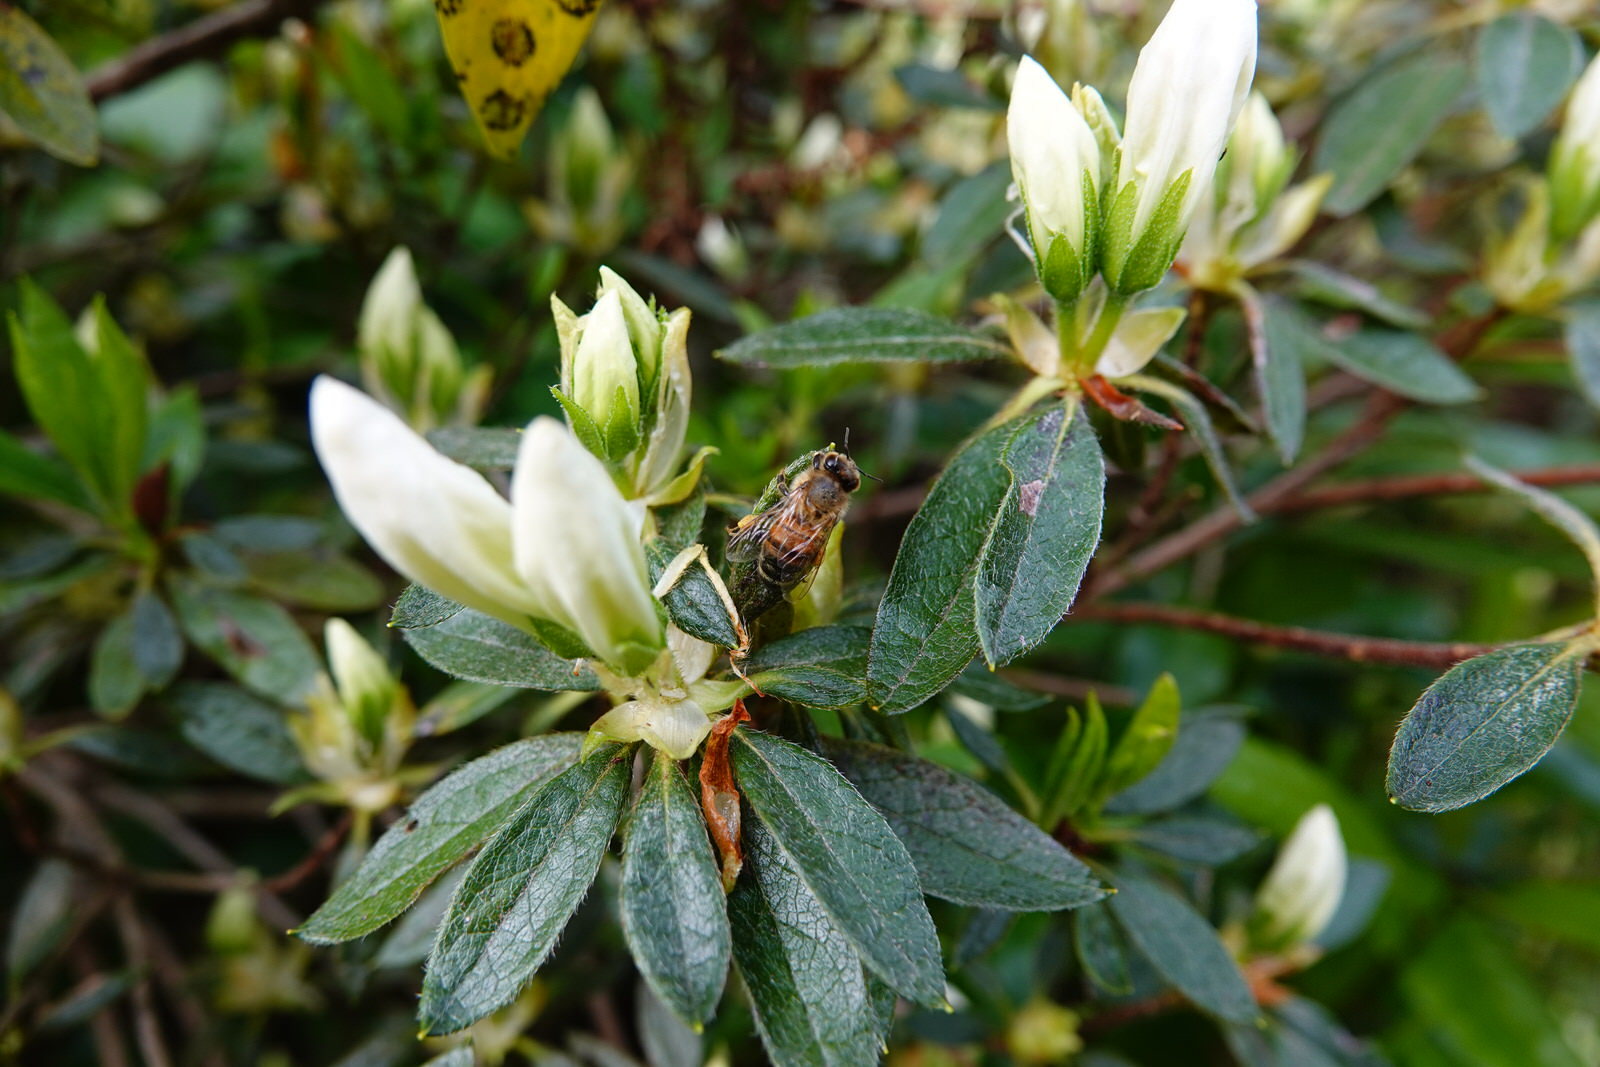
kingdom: Animalia
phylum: Arthropoda
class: Insecta
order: Hymenoptera
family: Apidae
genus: Apis
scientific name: Apis mellifera
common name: Honey bee
